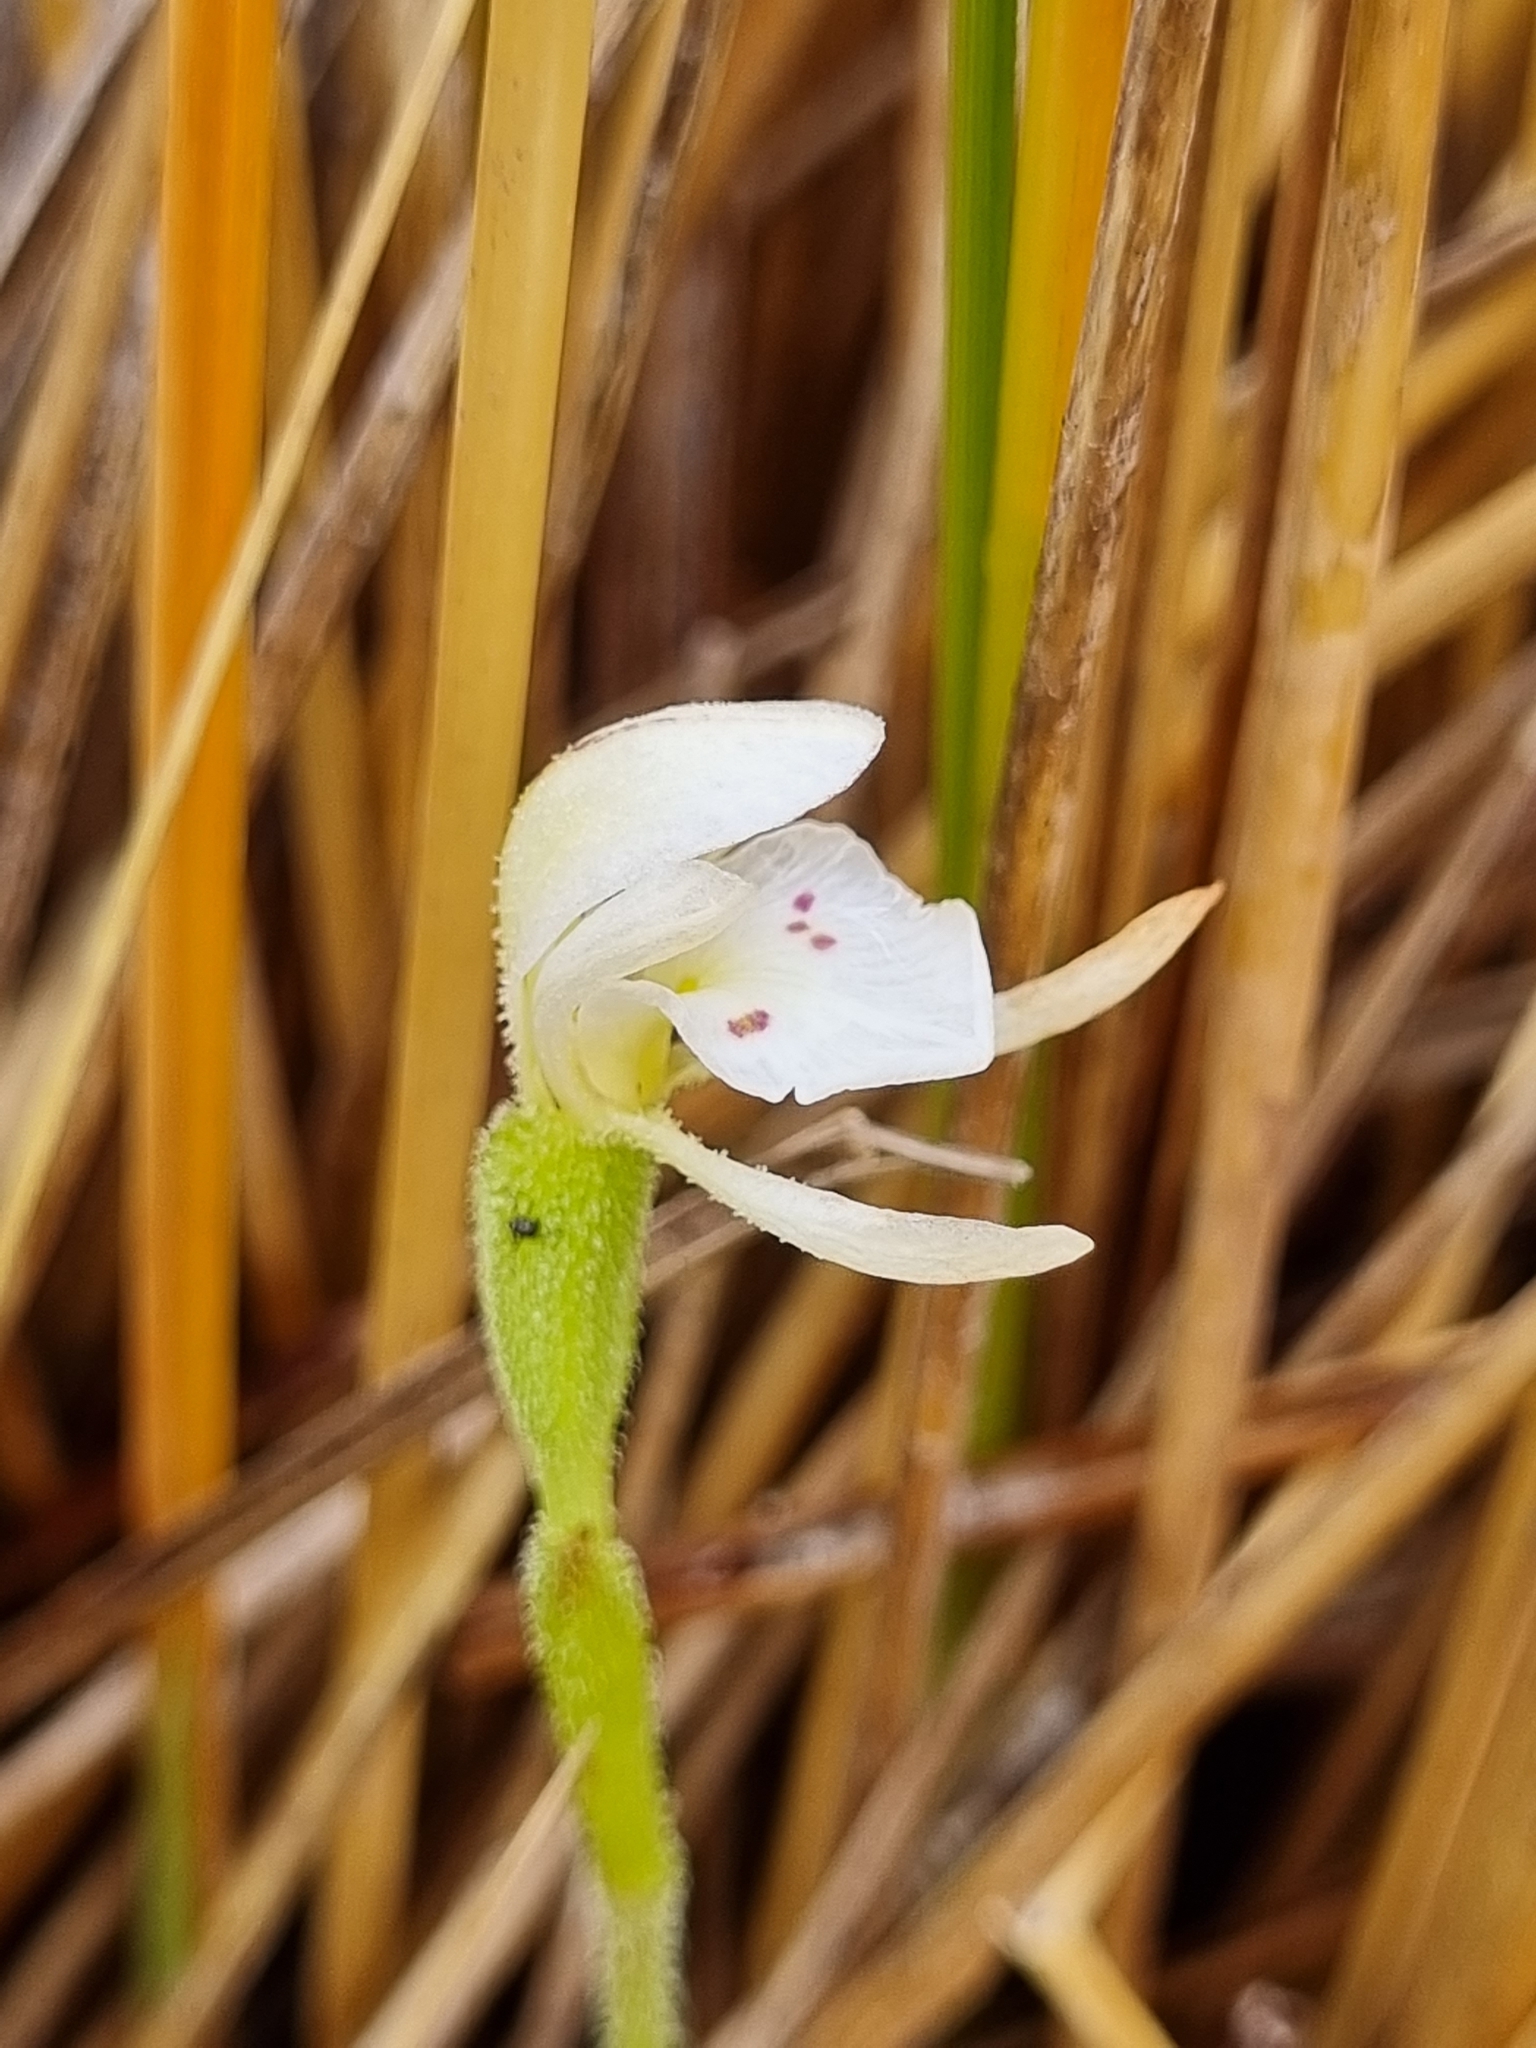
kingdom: Plantae
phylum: Tracheophyta
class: Liliopsida
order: Asparagales
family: Orchidaceae
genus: Aporostylis
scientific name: Aporostylis bifolia
